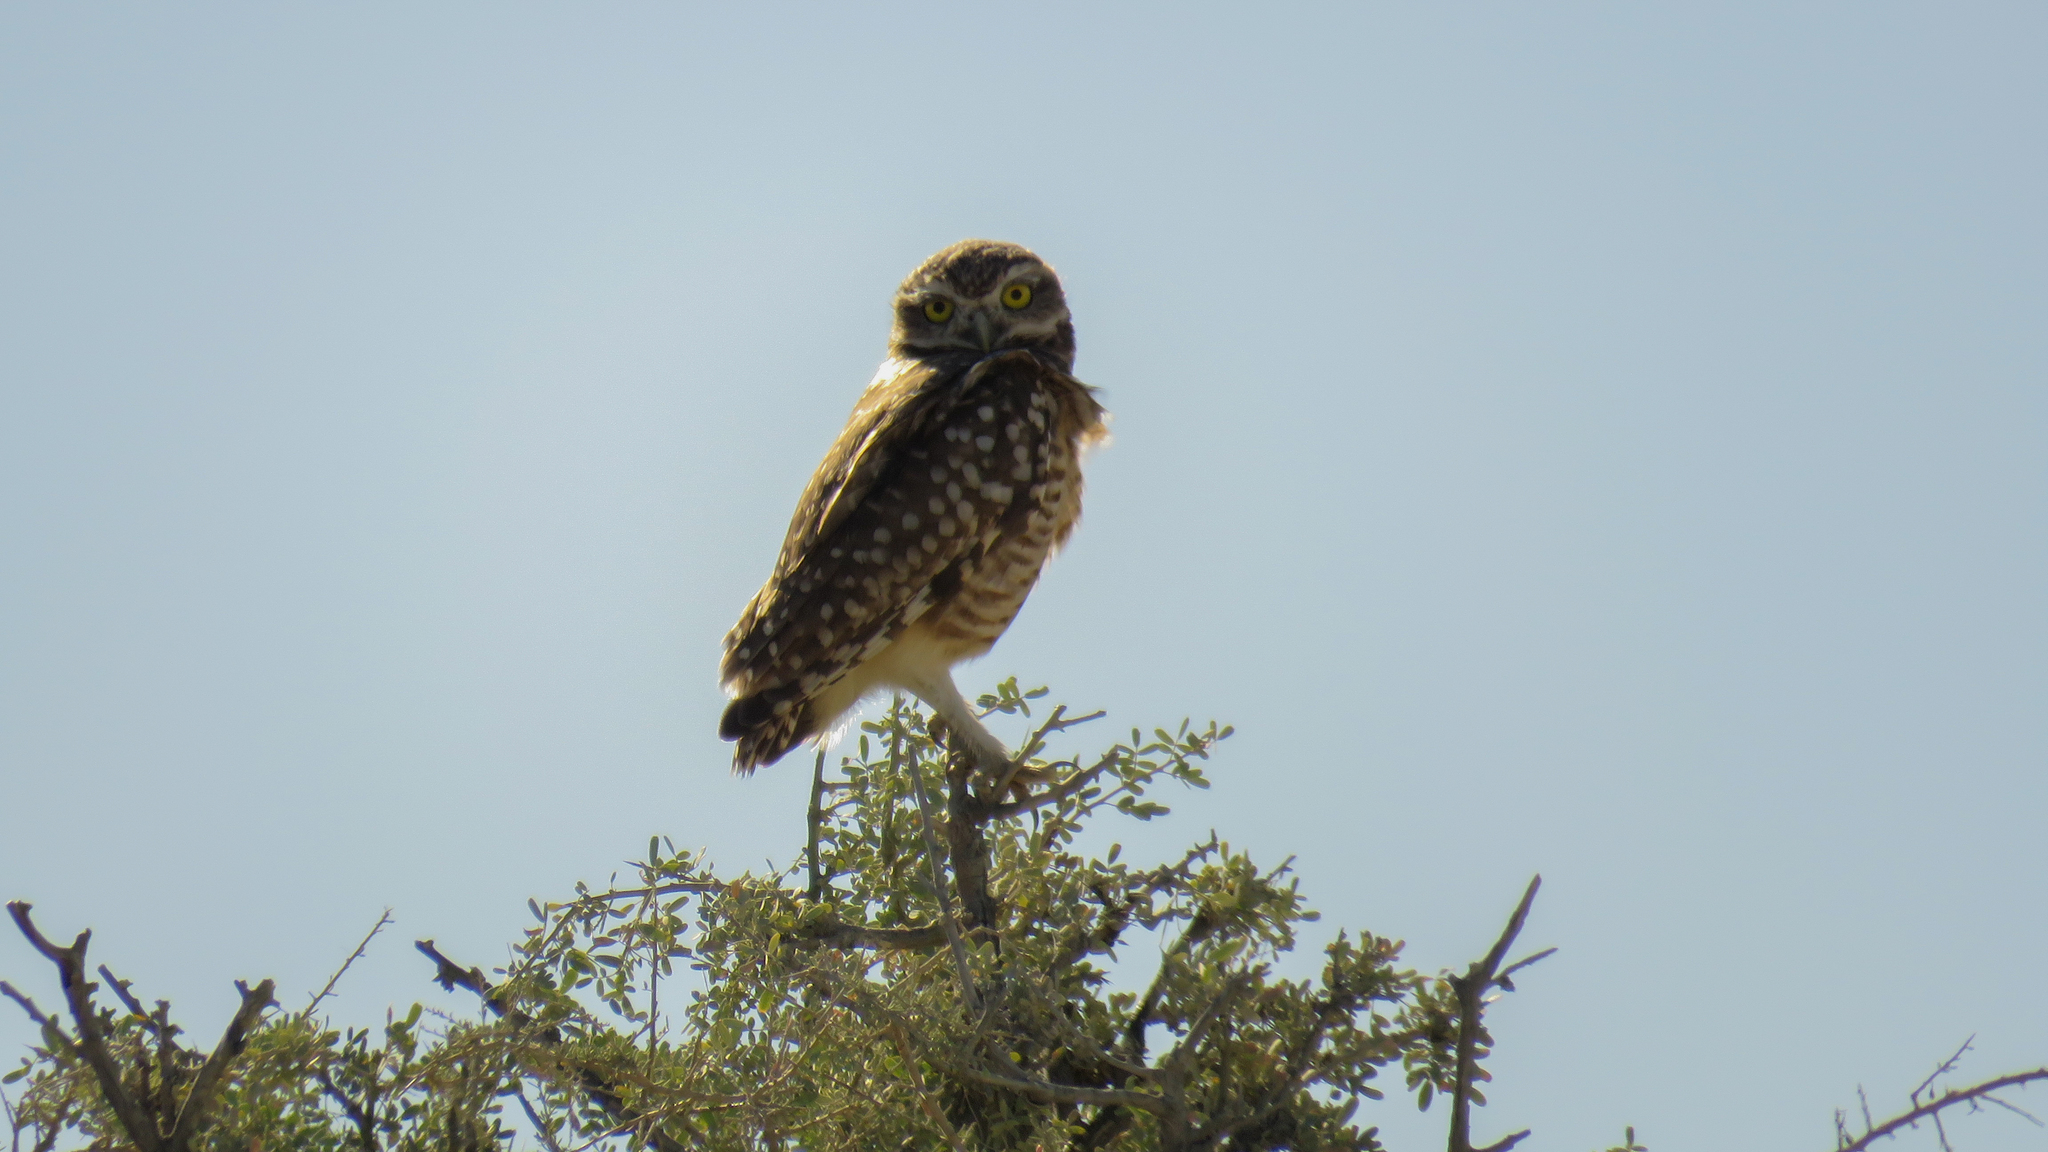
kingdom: Animalia
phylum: Chordata
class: Aves
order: Strigiformes
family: Strigidae
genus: Athene
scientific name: Athene cunicularia
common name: Burrowing owl
